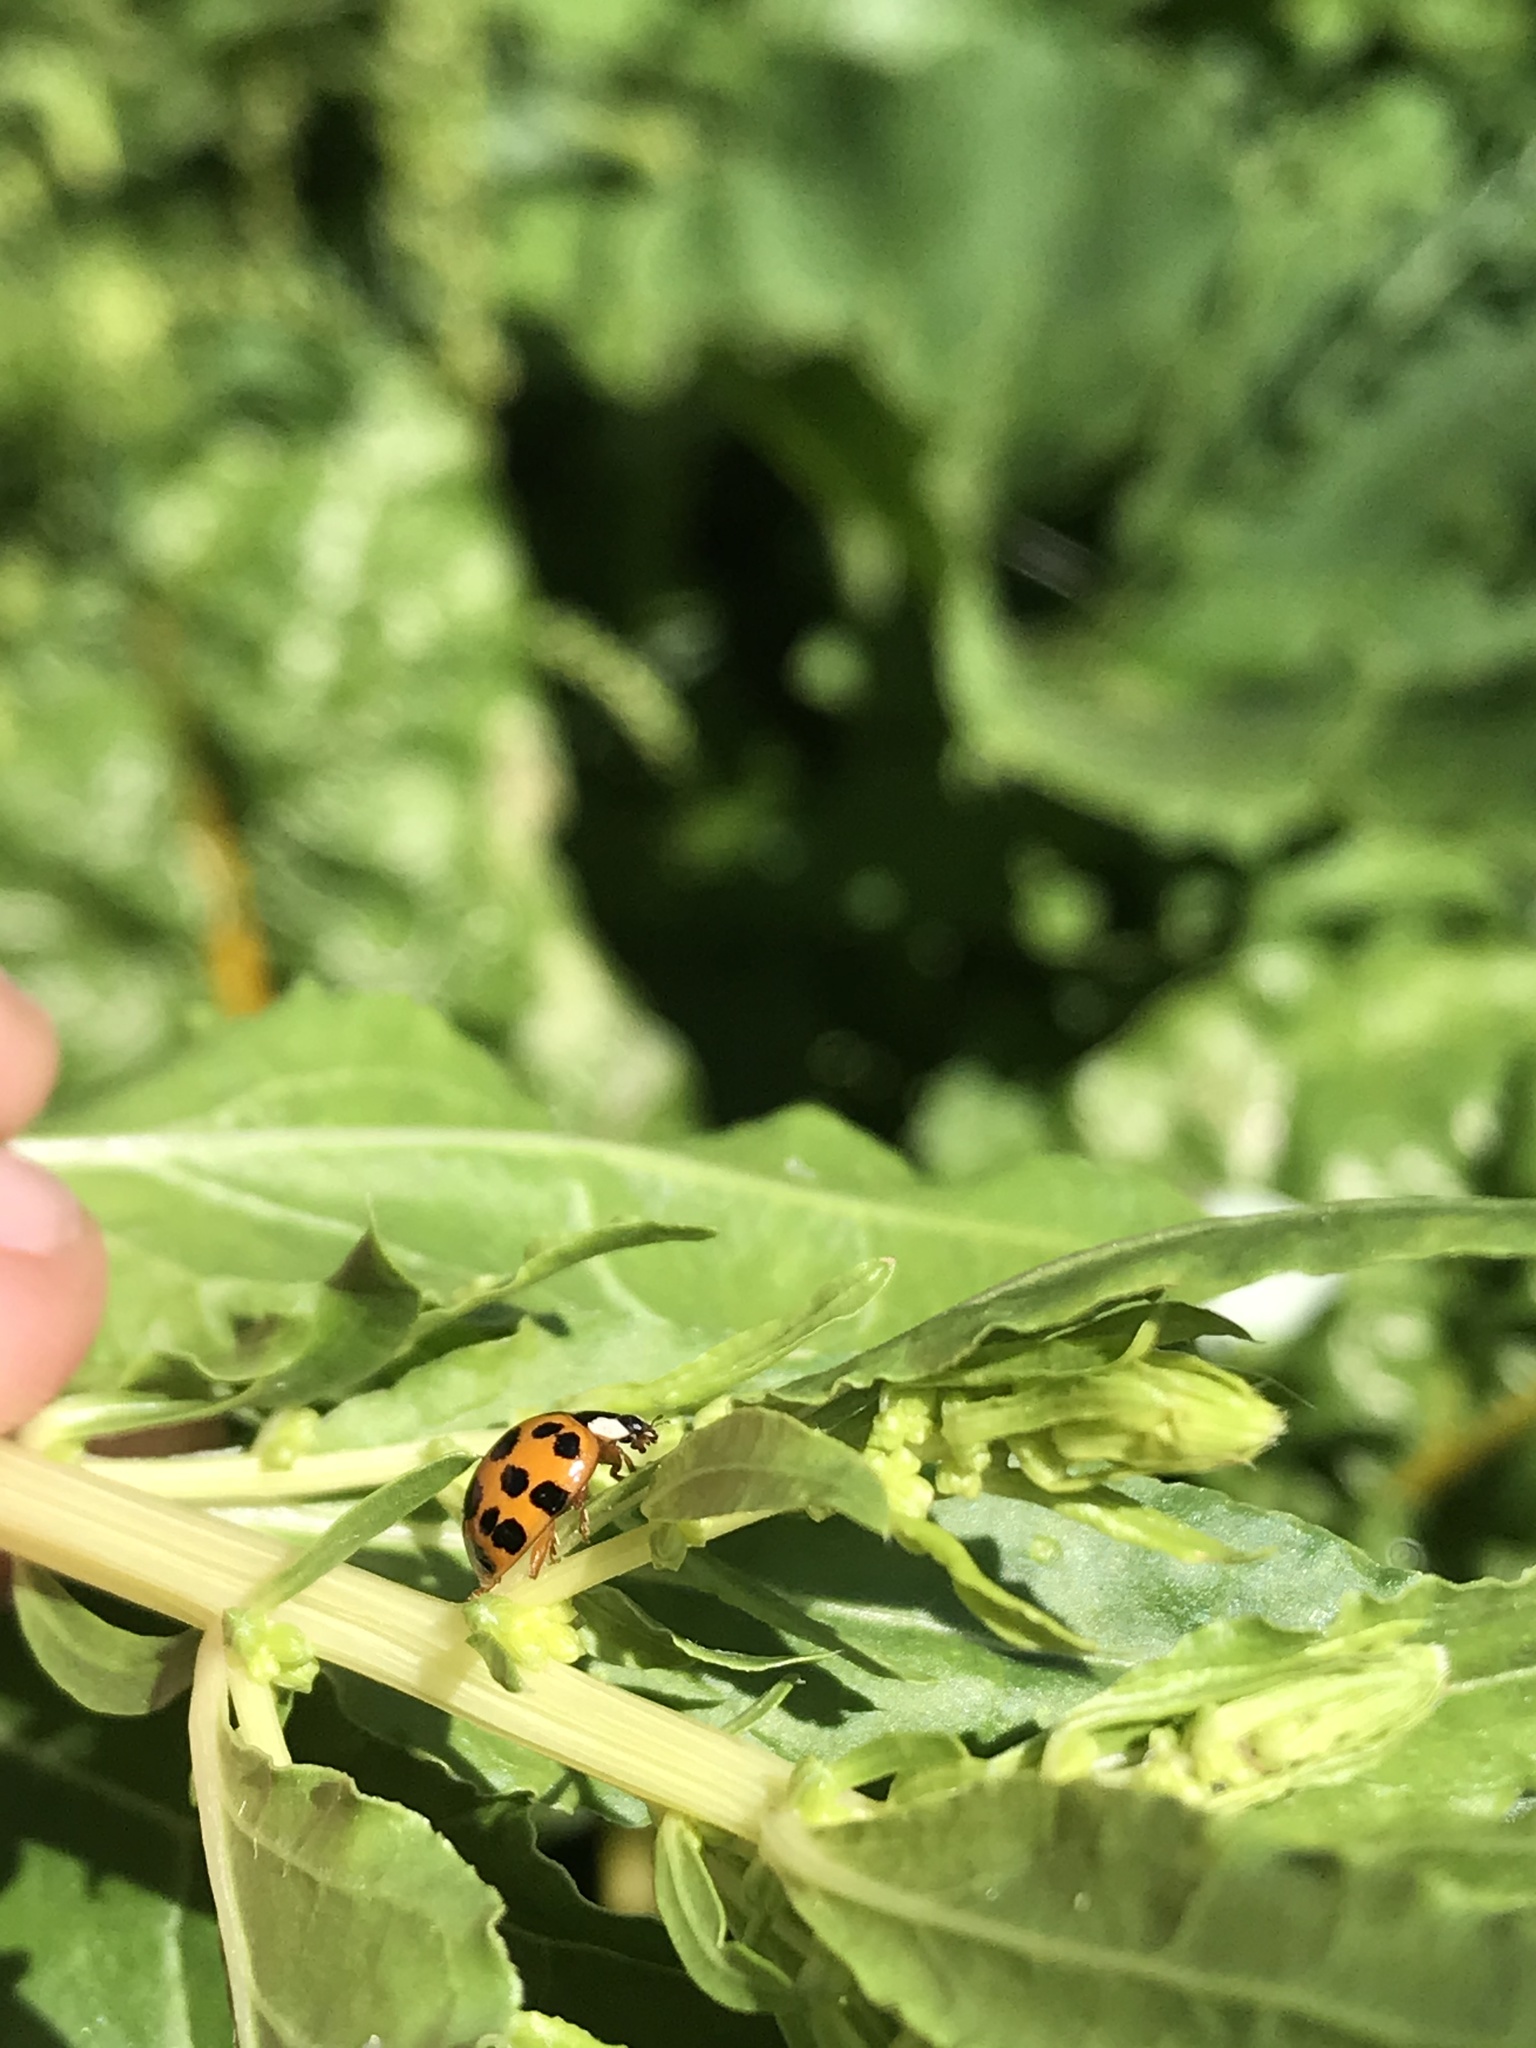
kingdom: Animalia
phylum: Arthropoda
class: Insecta
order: Coleoptera
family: Coccinellidae
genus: Harmonia
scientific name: Harmonia axyridis
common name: Harlequin ladybird
